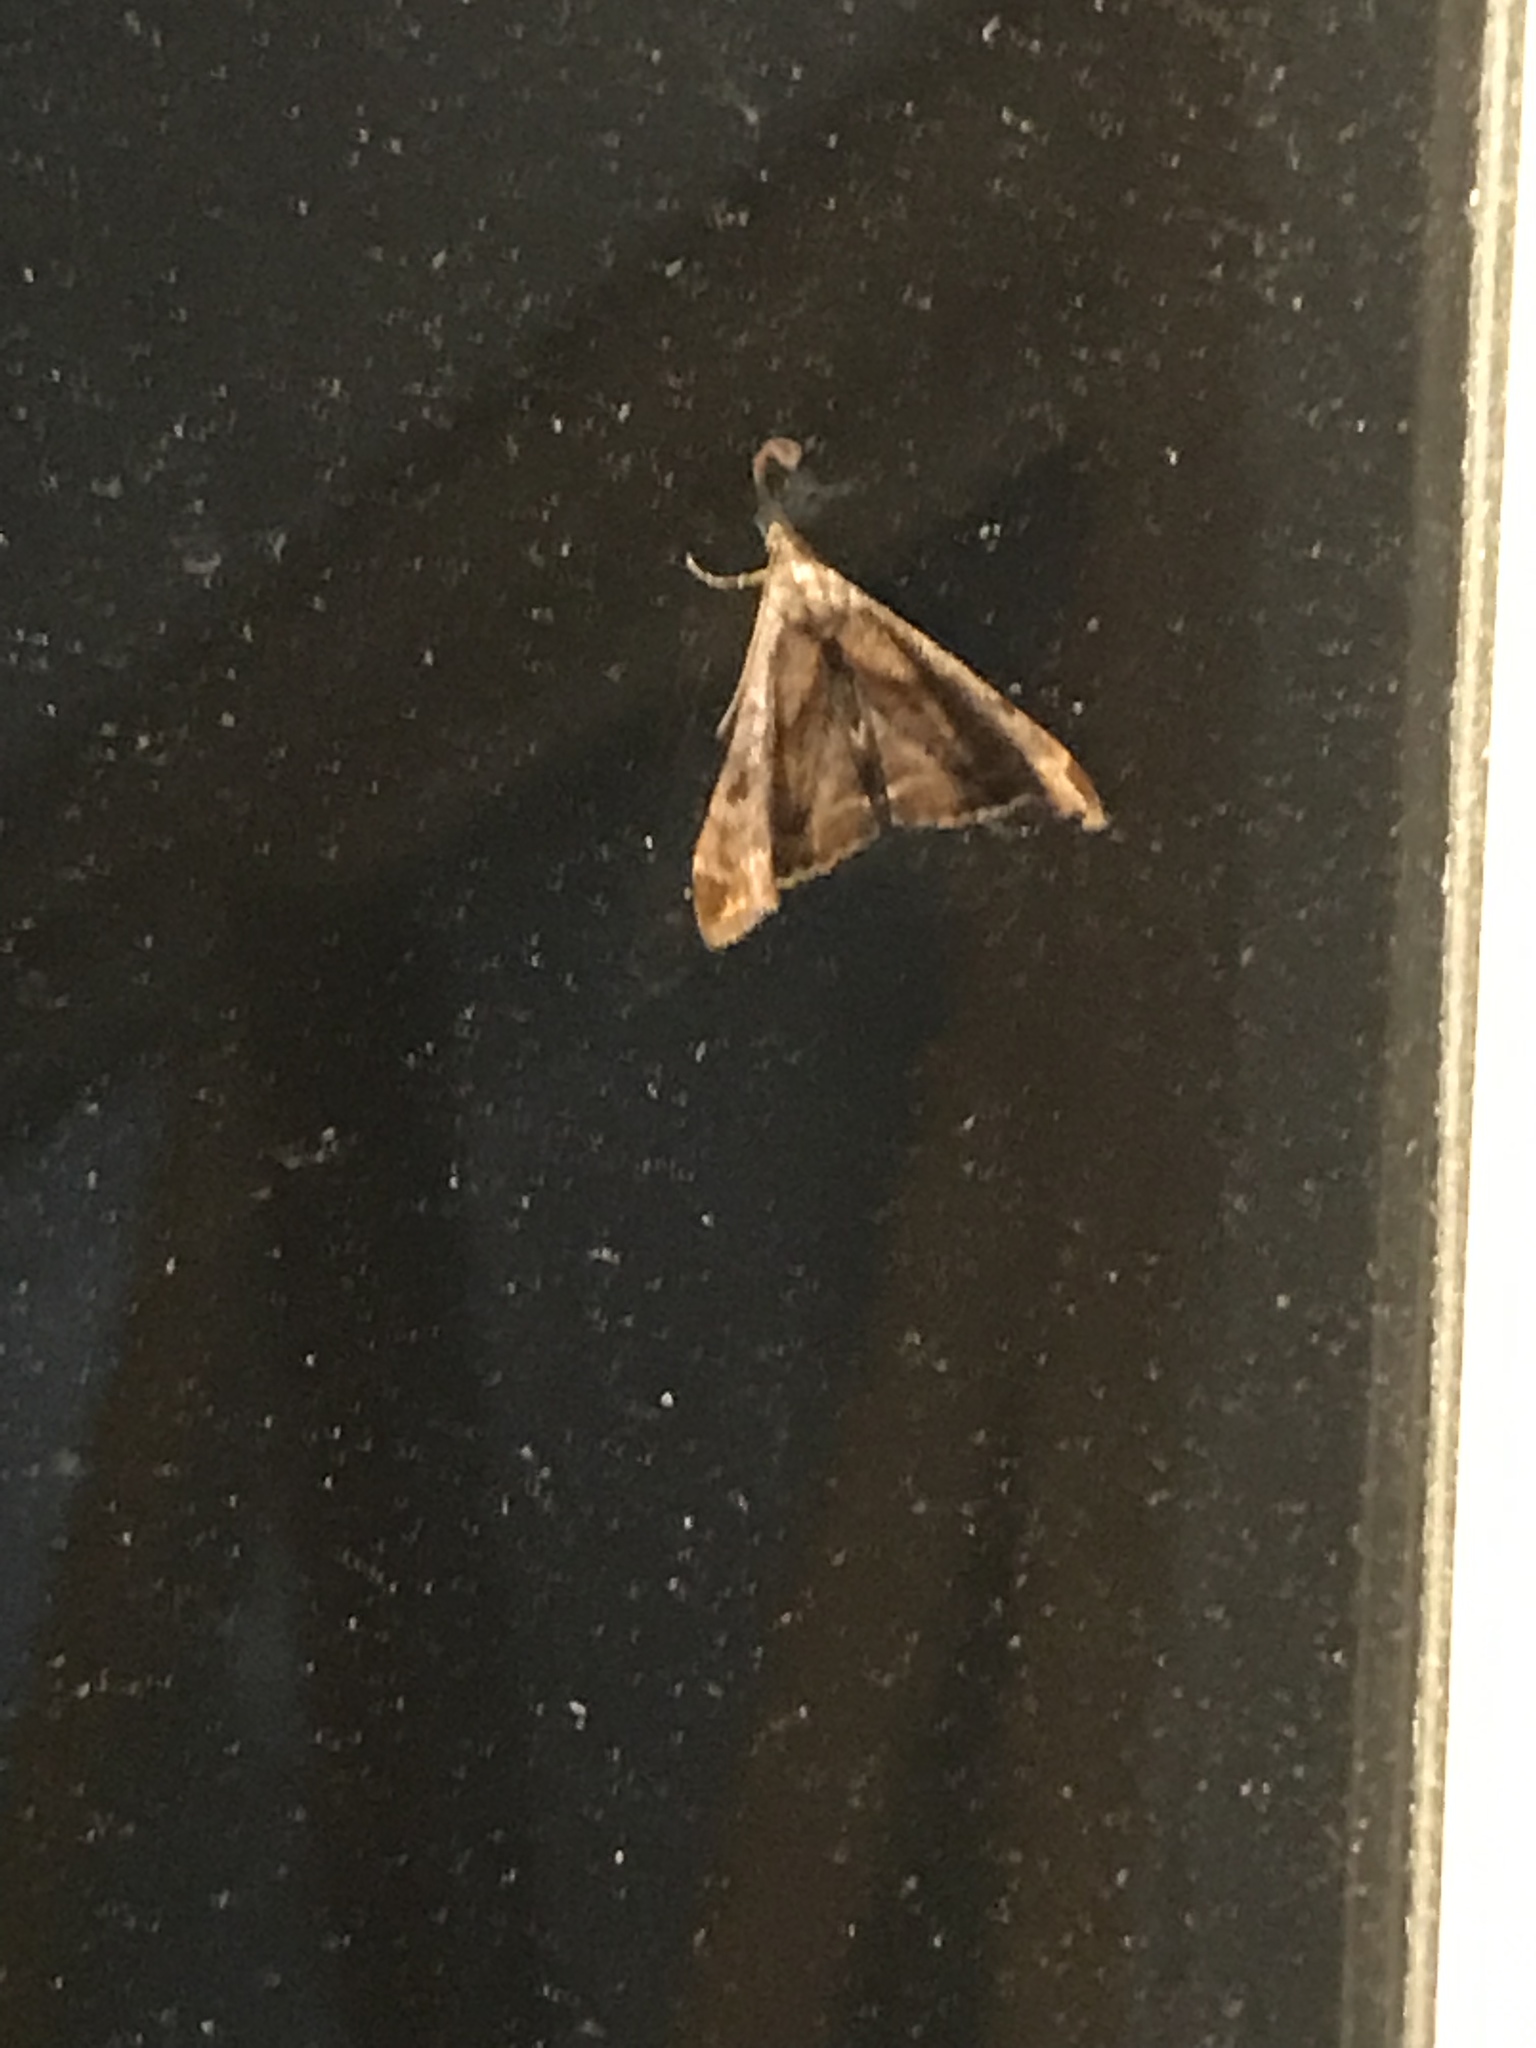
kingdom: Animalia
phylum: Arthropoda
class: Insecta
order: Lepidoptera
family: Erebidae
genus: Palthis
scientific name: Palthis angulalis
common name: Dark-spotted palthis moth
